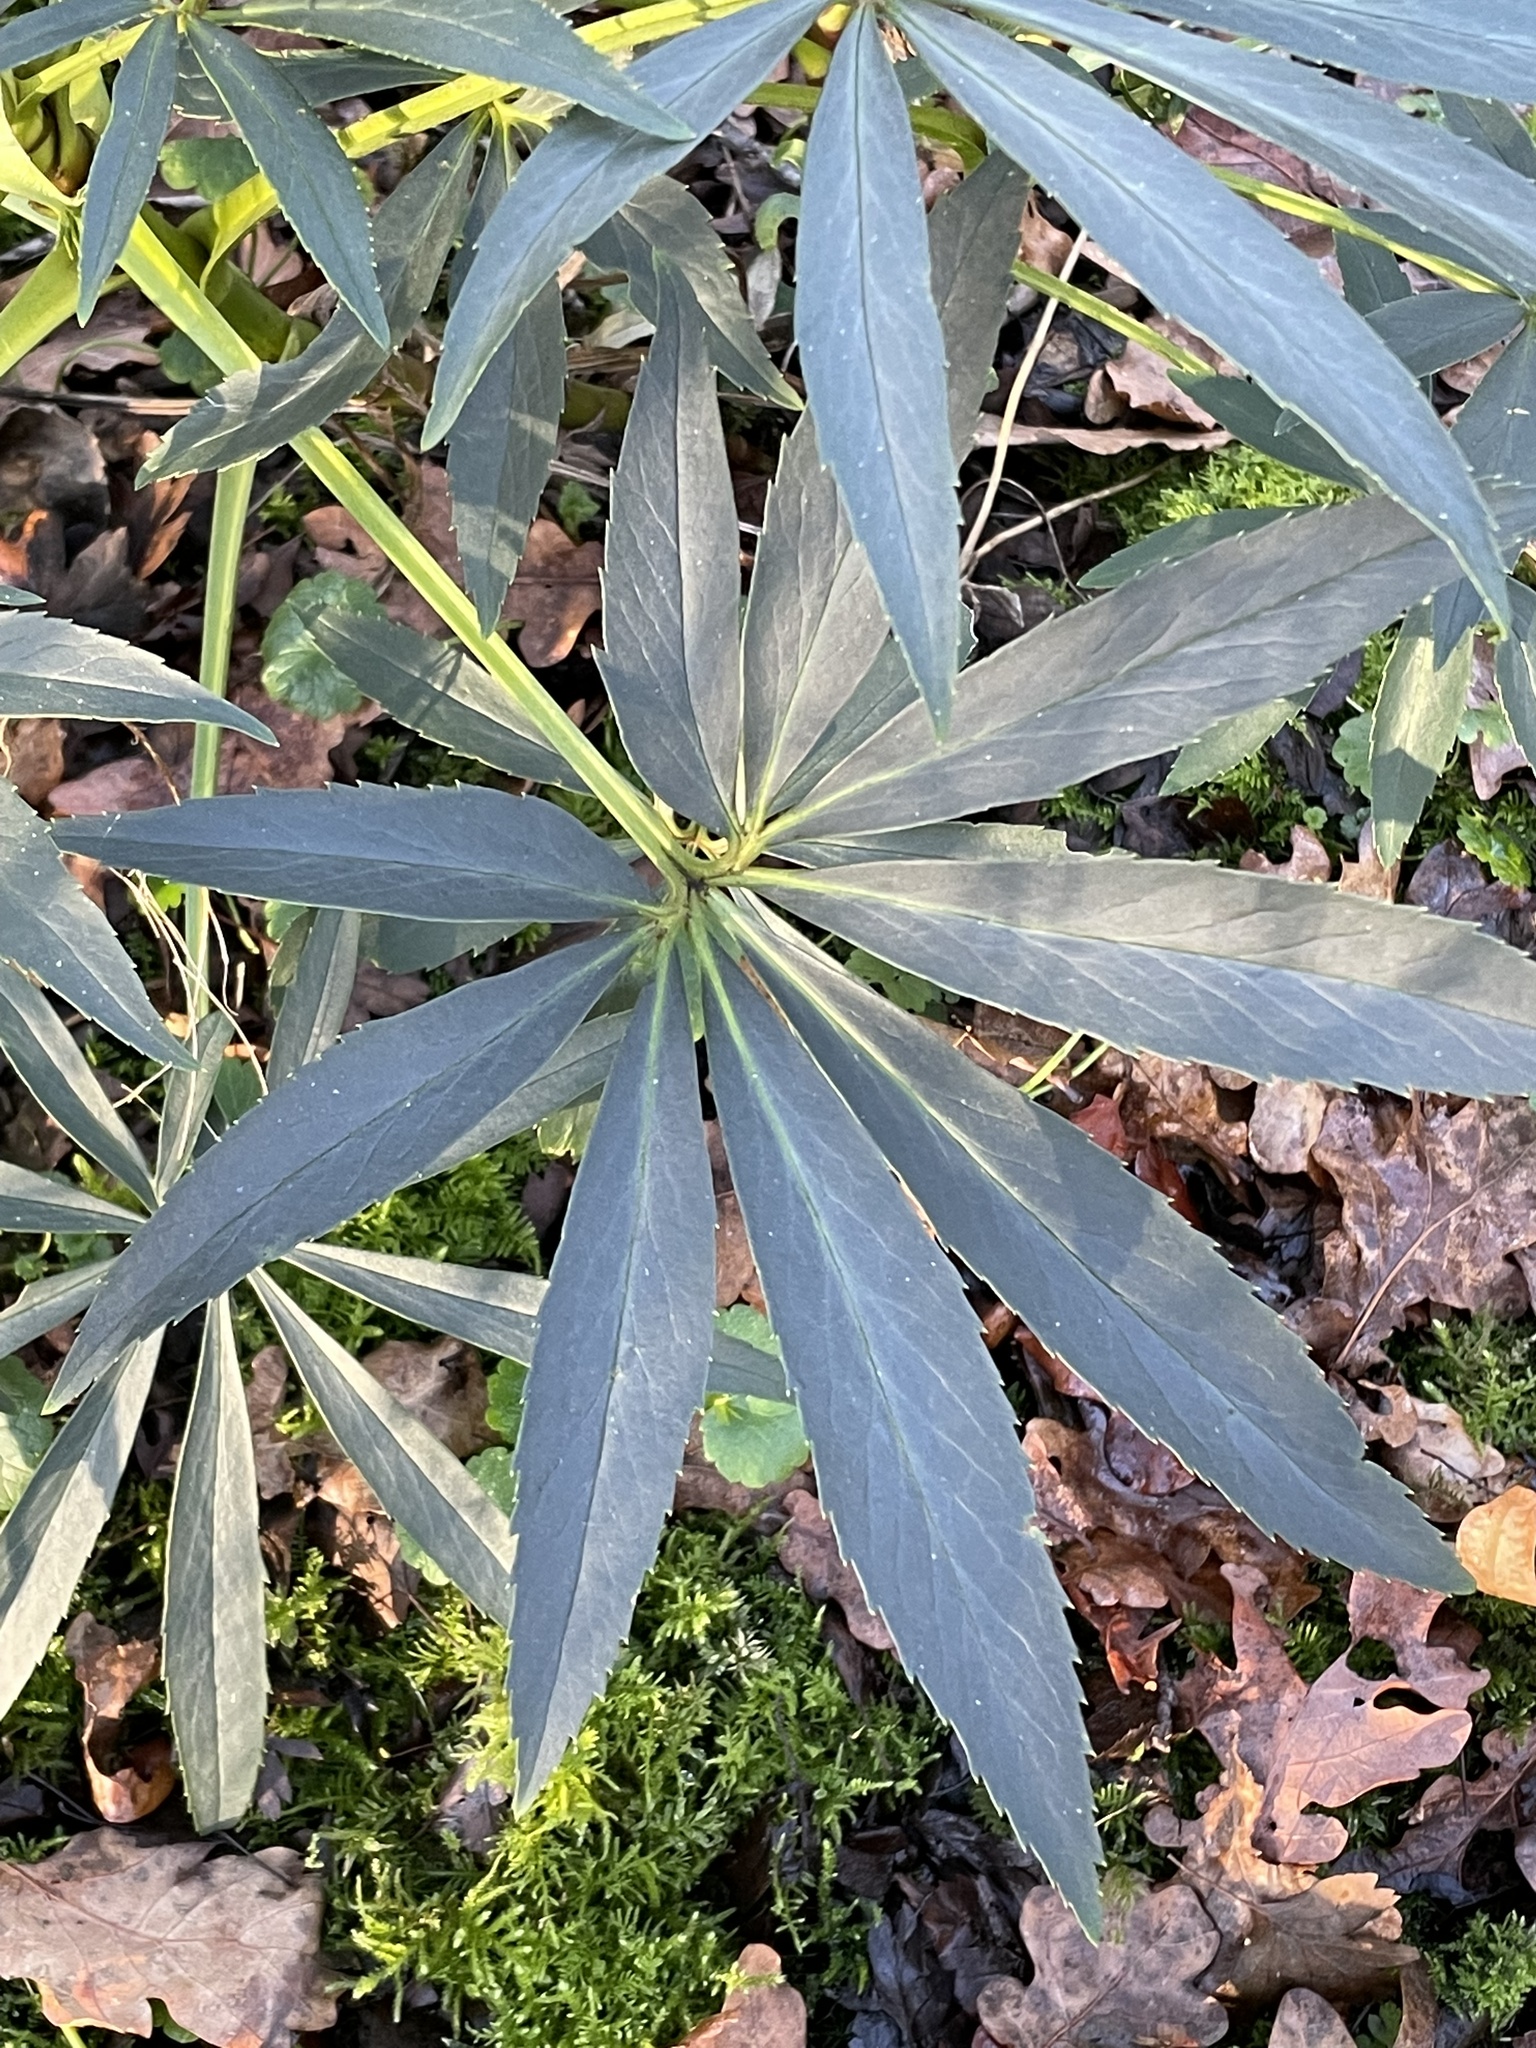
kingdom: Plantae
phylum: Tracheophyta
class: Magnoliopsida
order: Ranunculales
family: Ranunculaceae
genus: Helleborus
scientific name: Helleborus foetidus
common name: Stinking hellebore
